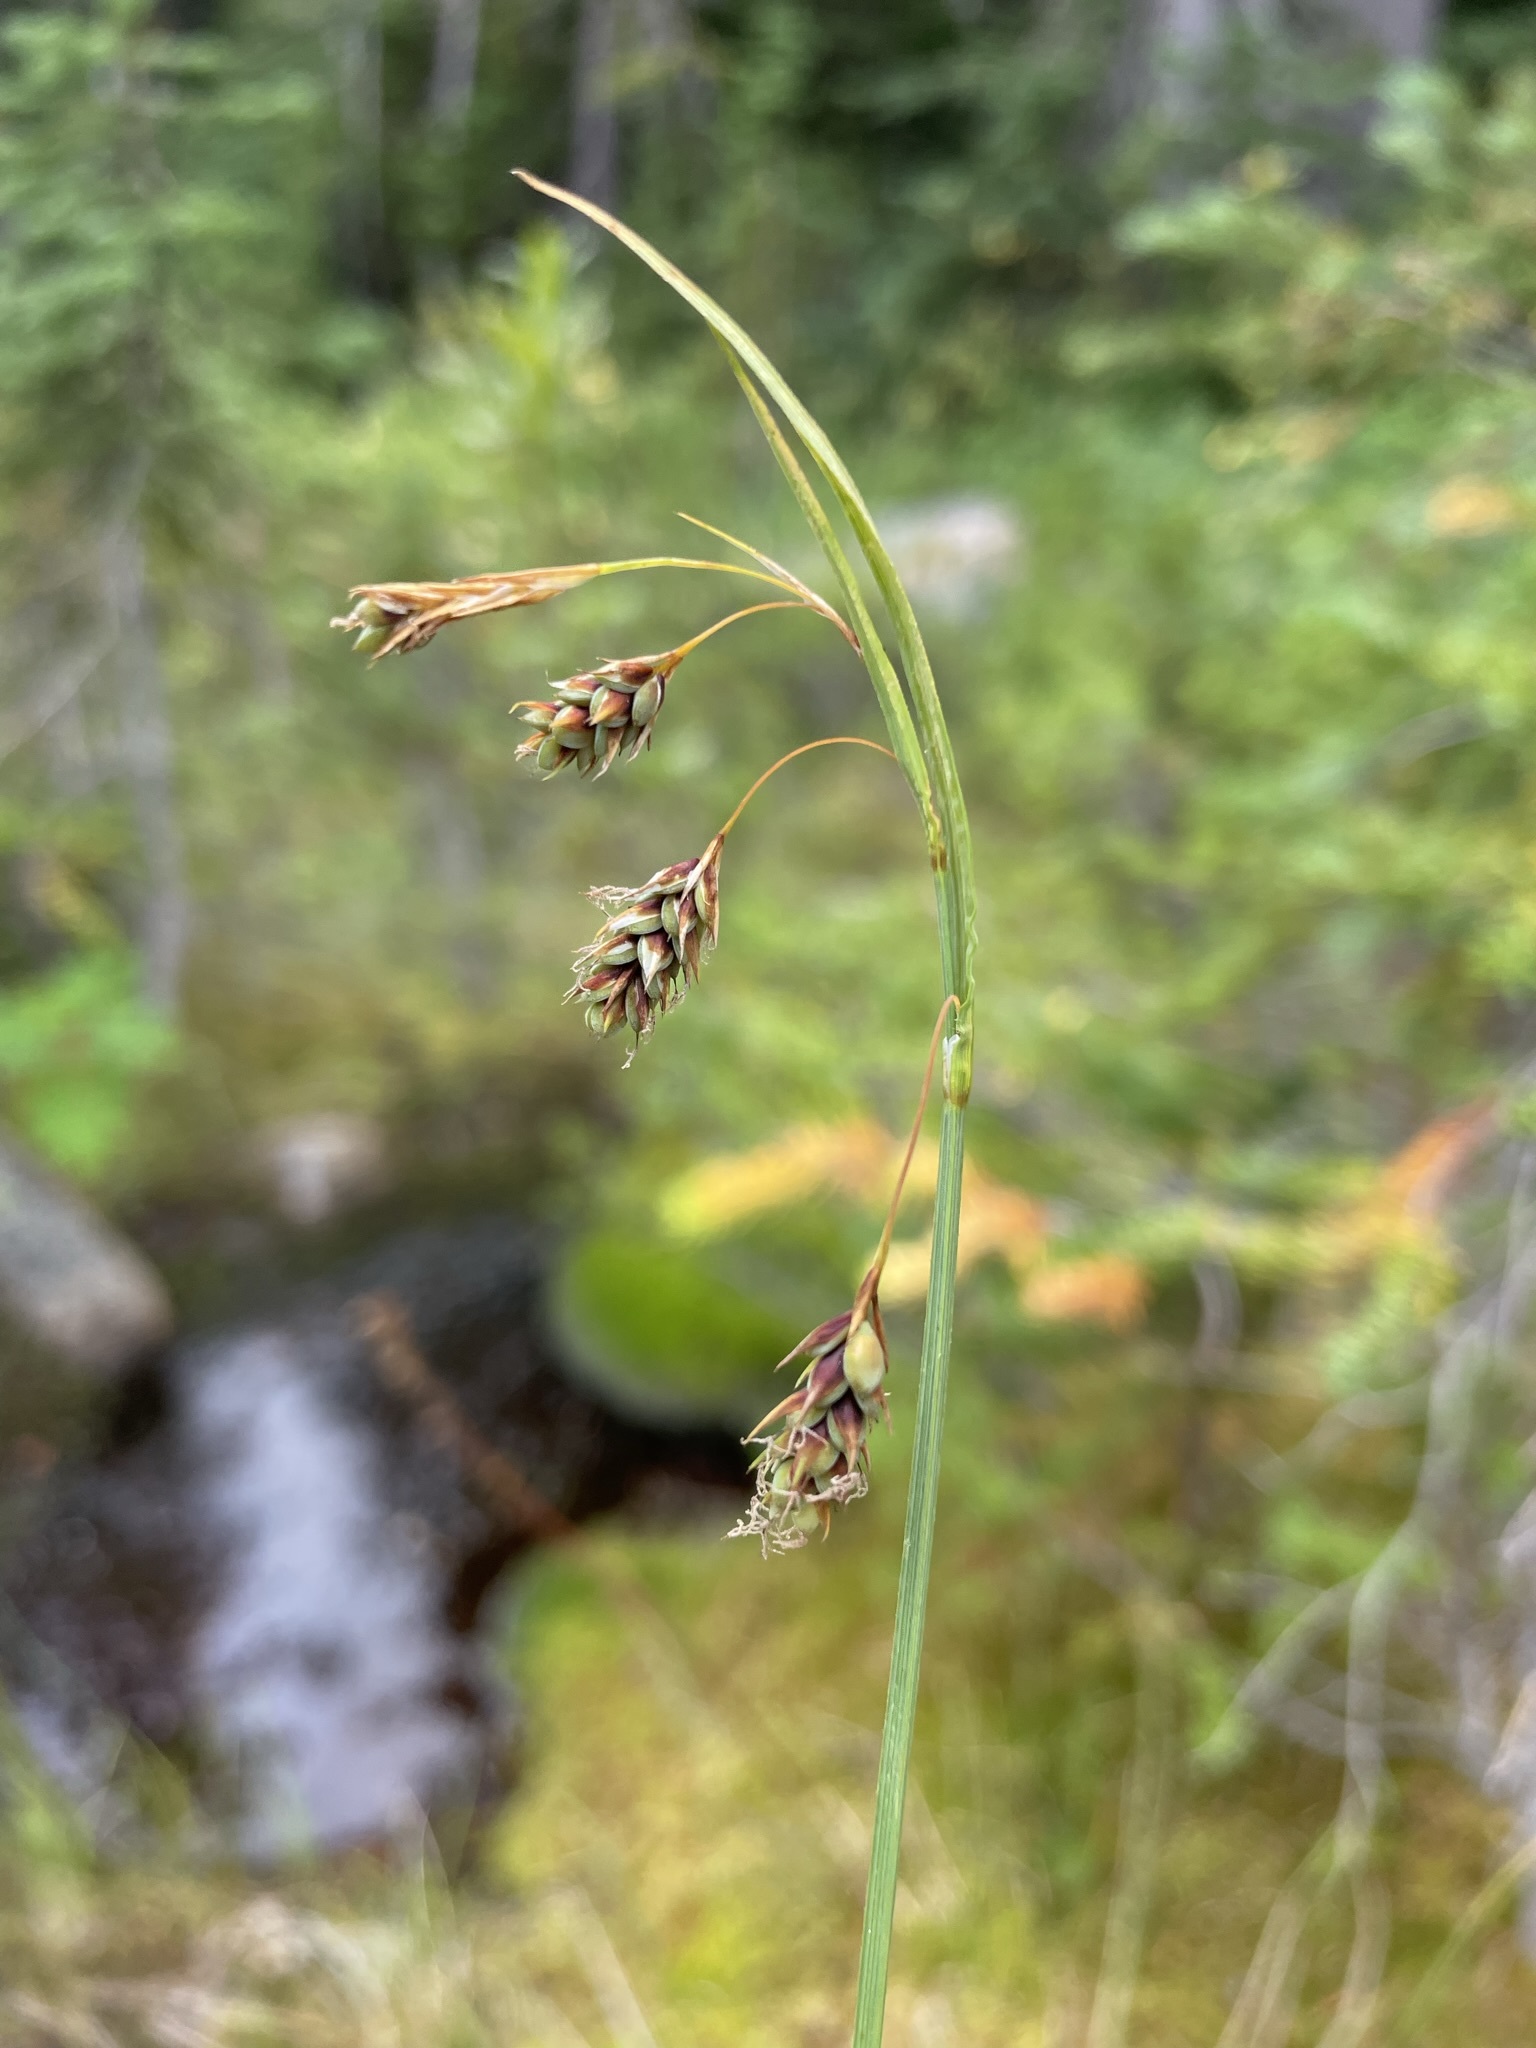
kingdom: Plantae
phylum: Tracheophyta
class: Liliopsida
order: Poales
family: Cyperaceae
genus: Carex
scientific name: Carex magellanica
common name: Bog sedge
